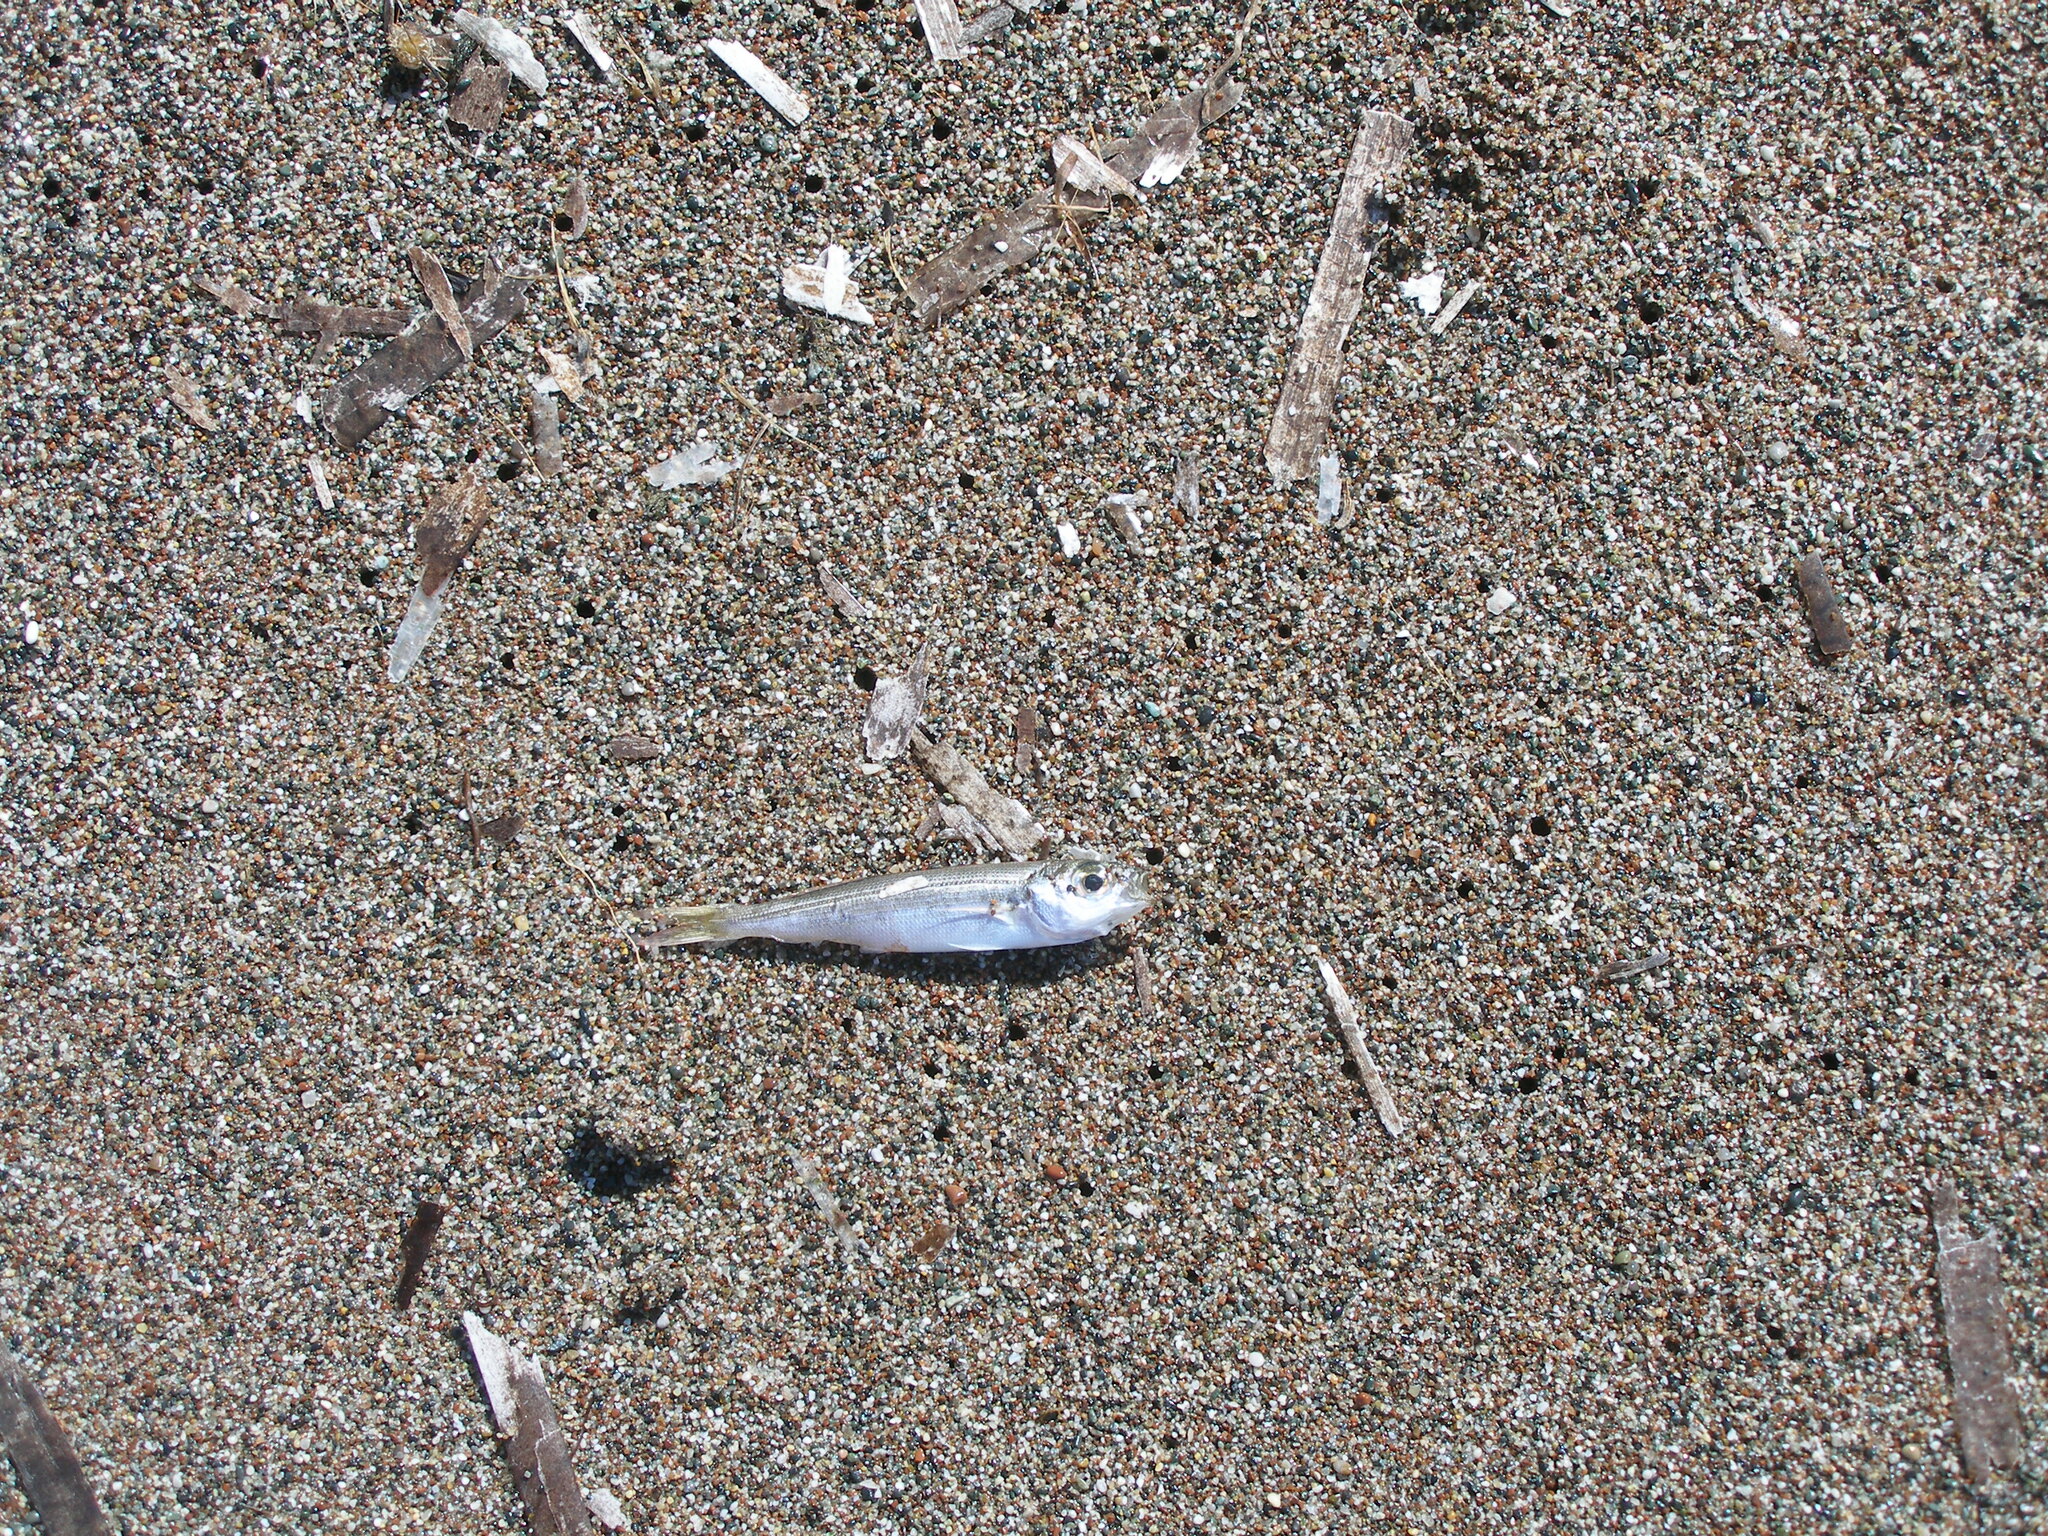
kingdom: Animalia
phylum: Chordata
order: Perciformes
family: Sparidae
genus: Boops
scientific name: Boops boops
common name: Bogue
